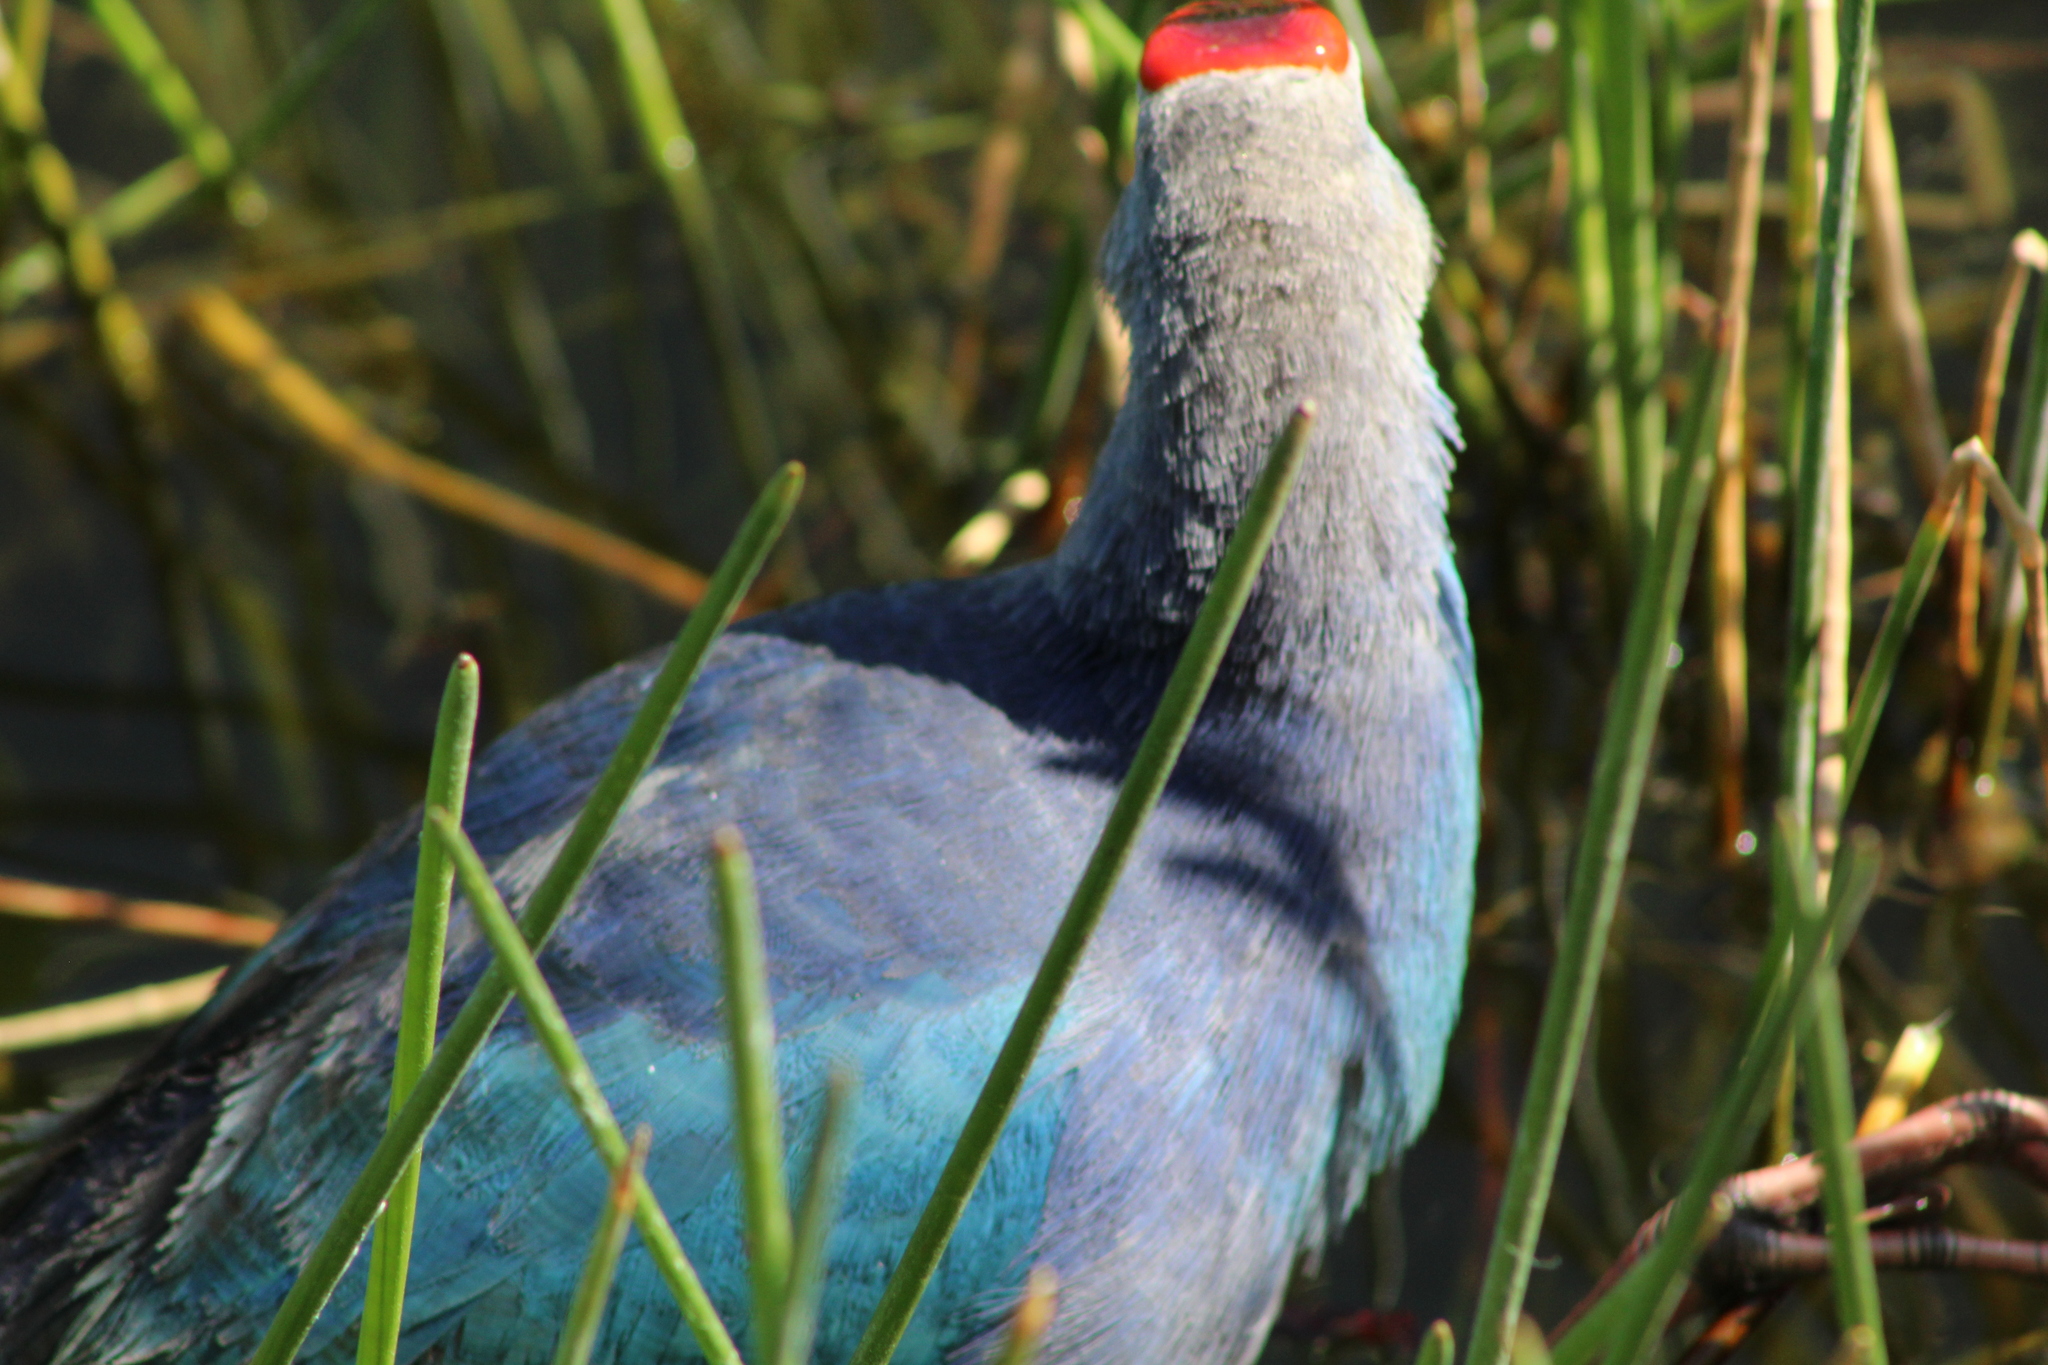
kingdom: Animalia
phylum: Chordata
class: Aves
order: Gruiformes
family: Rallidae
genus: Porphyrio
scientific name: Porphyrio porphyrio
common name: Purple swamphen
